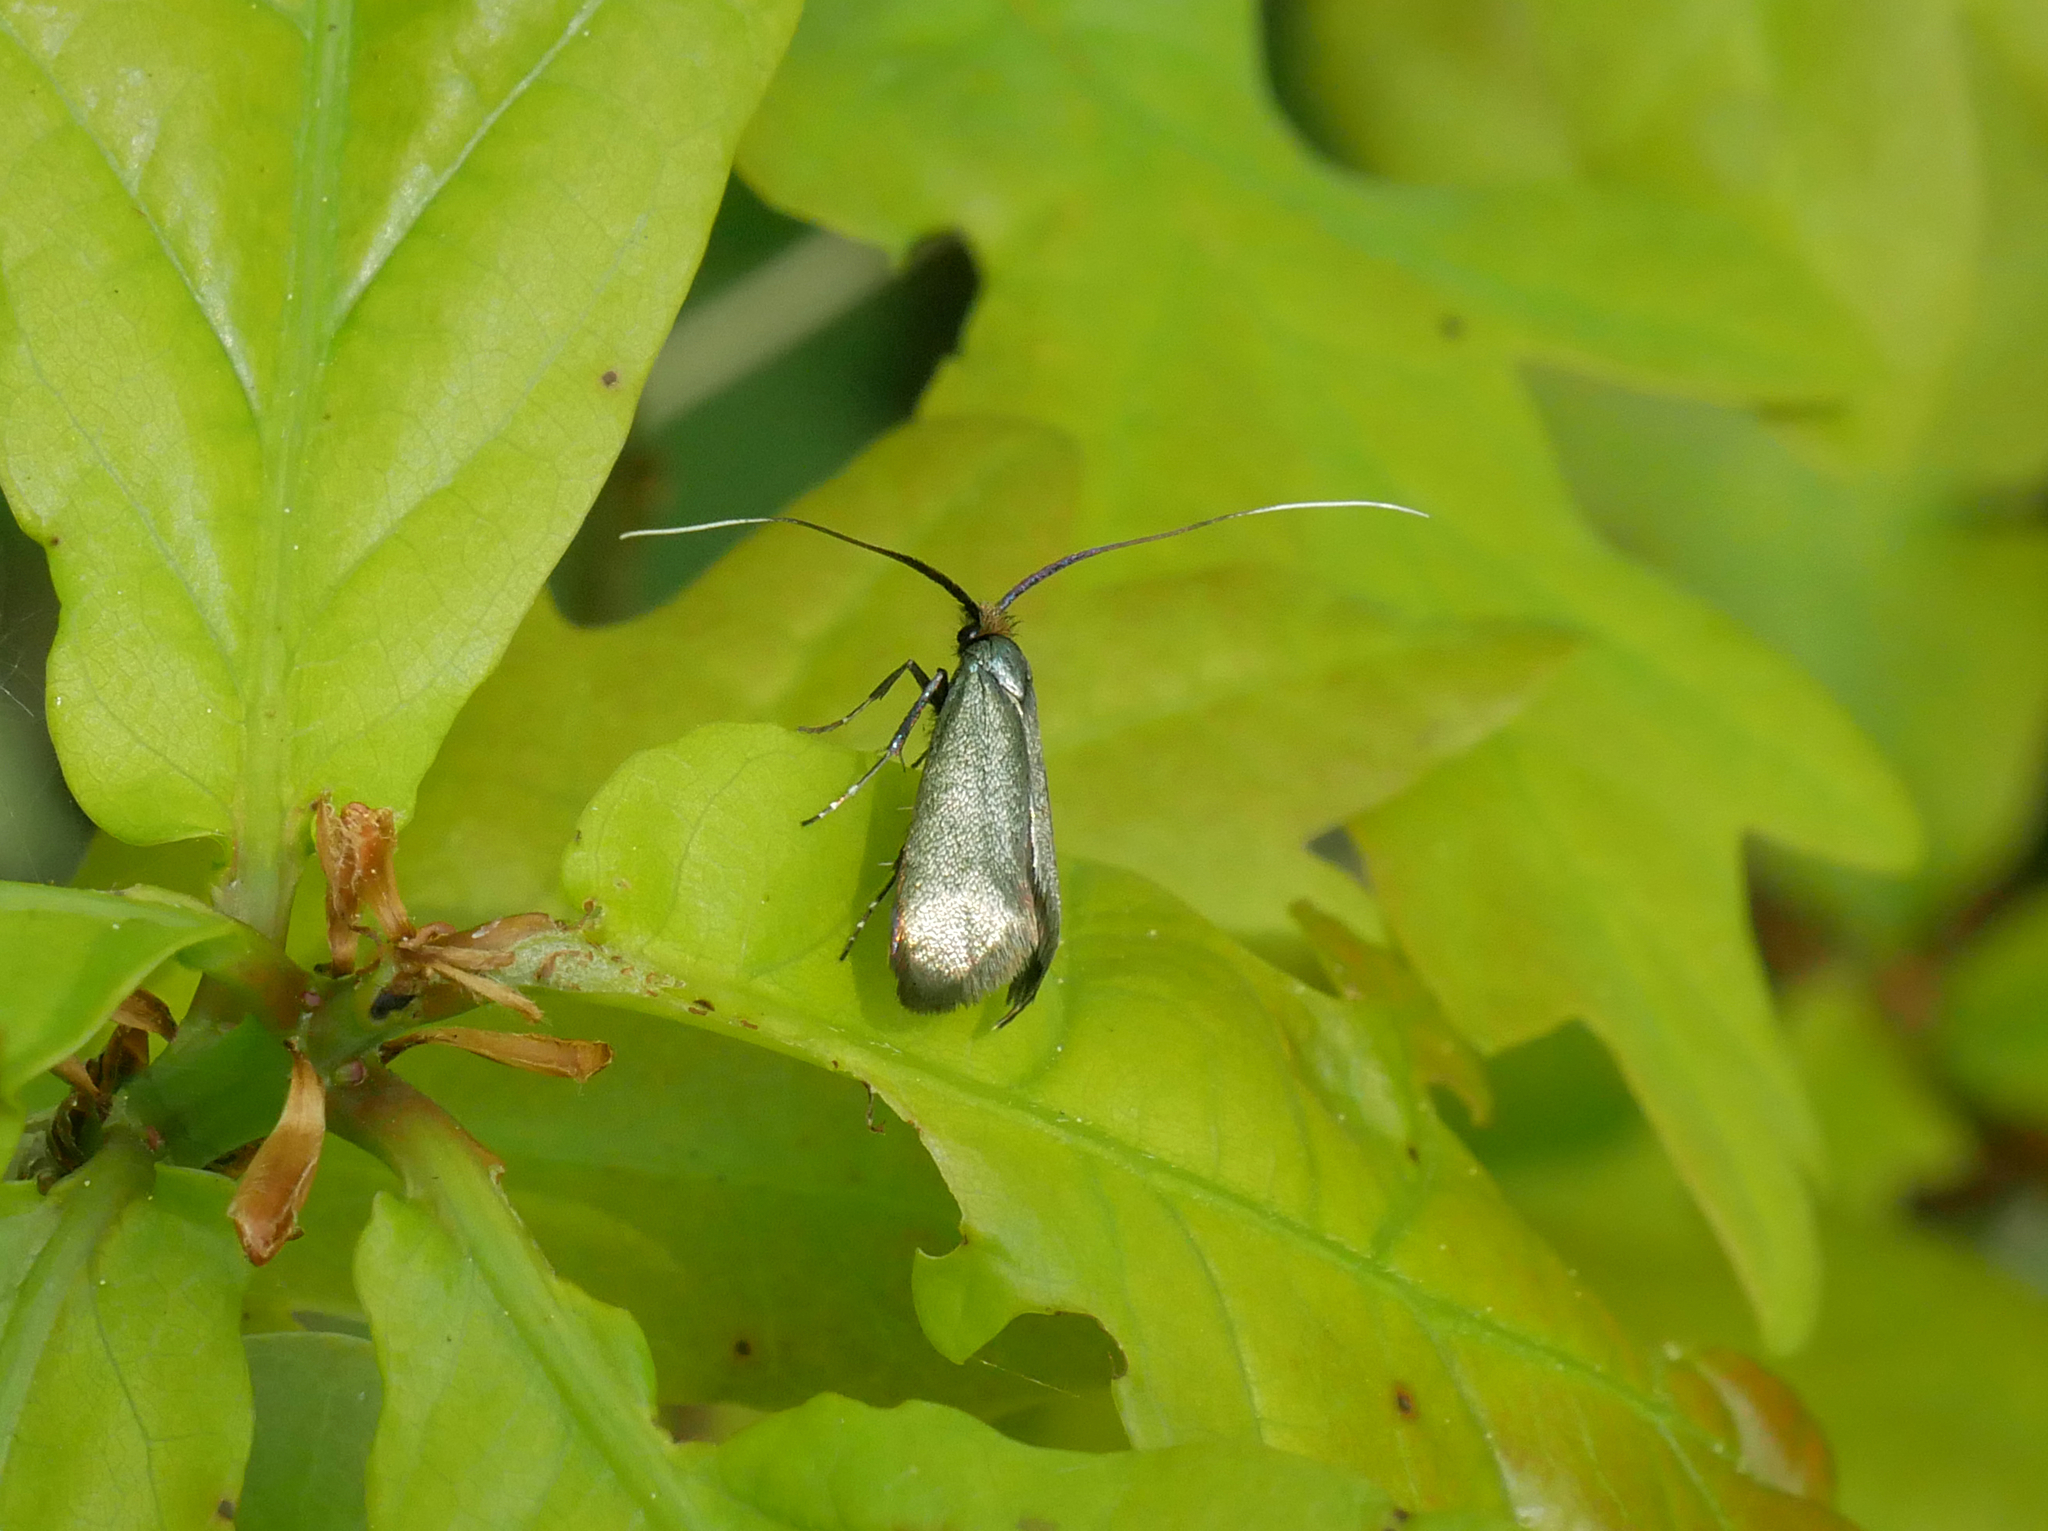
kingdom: Animalia
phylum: Arthropoda
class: Insecta
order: Lepidoptera
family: Adelidae
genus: Adela
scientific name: Adela viridella
